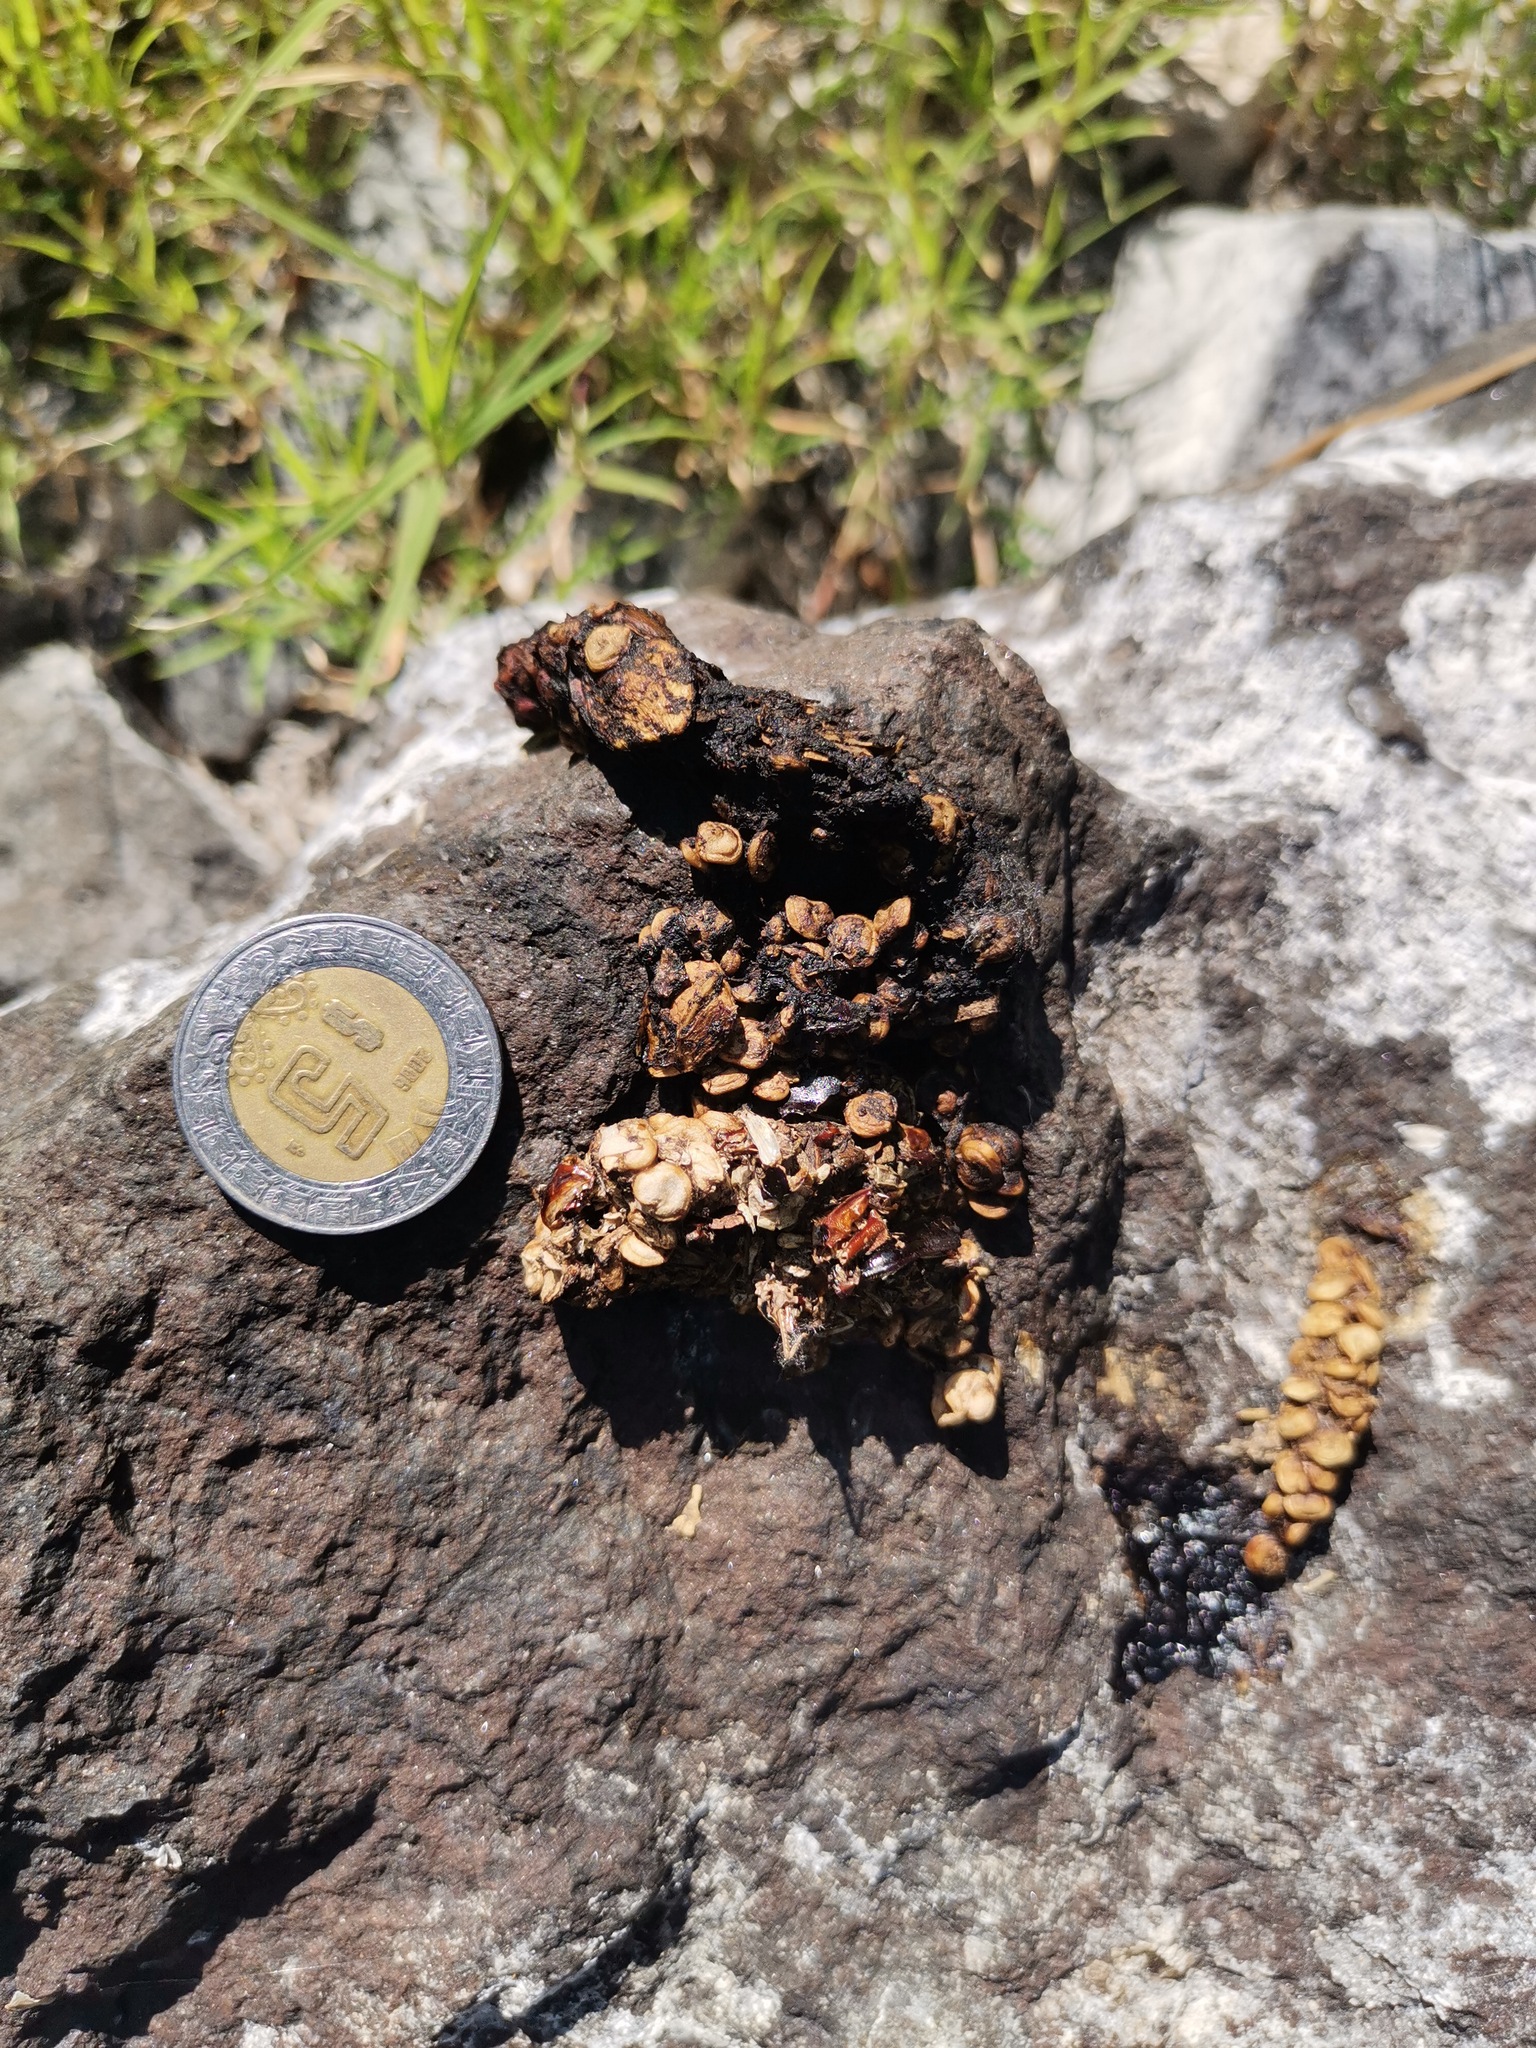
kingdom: Animalia
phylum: Chordata
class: Mammalia
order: Carnivora
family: Procyonidae
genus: Bassariscus
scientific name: Bassariscus astutus
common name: Ringtail
